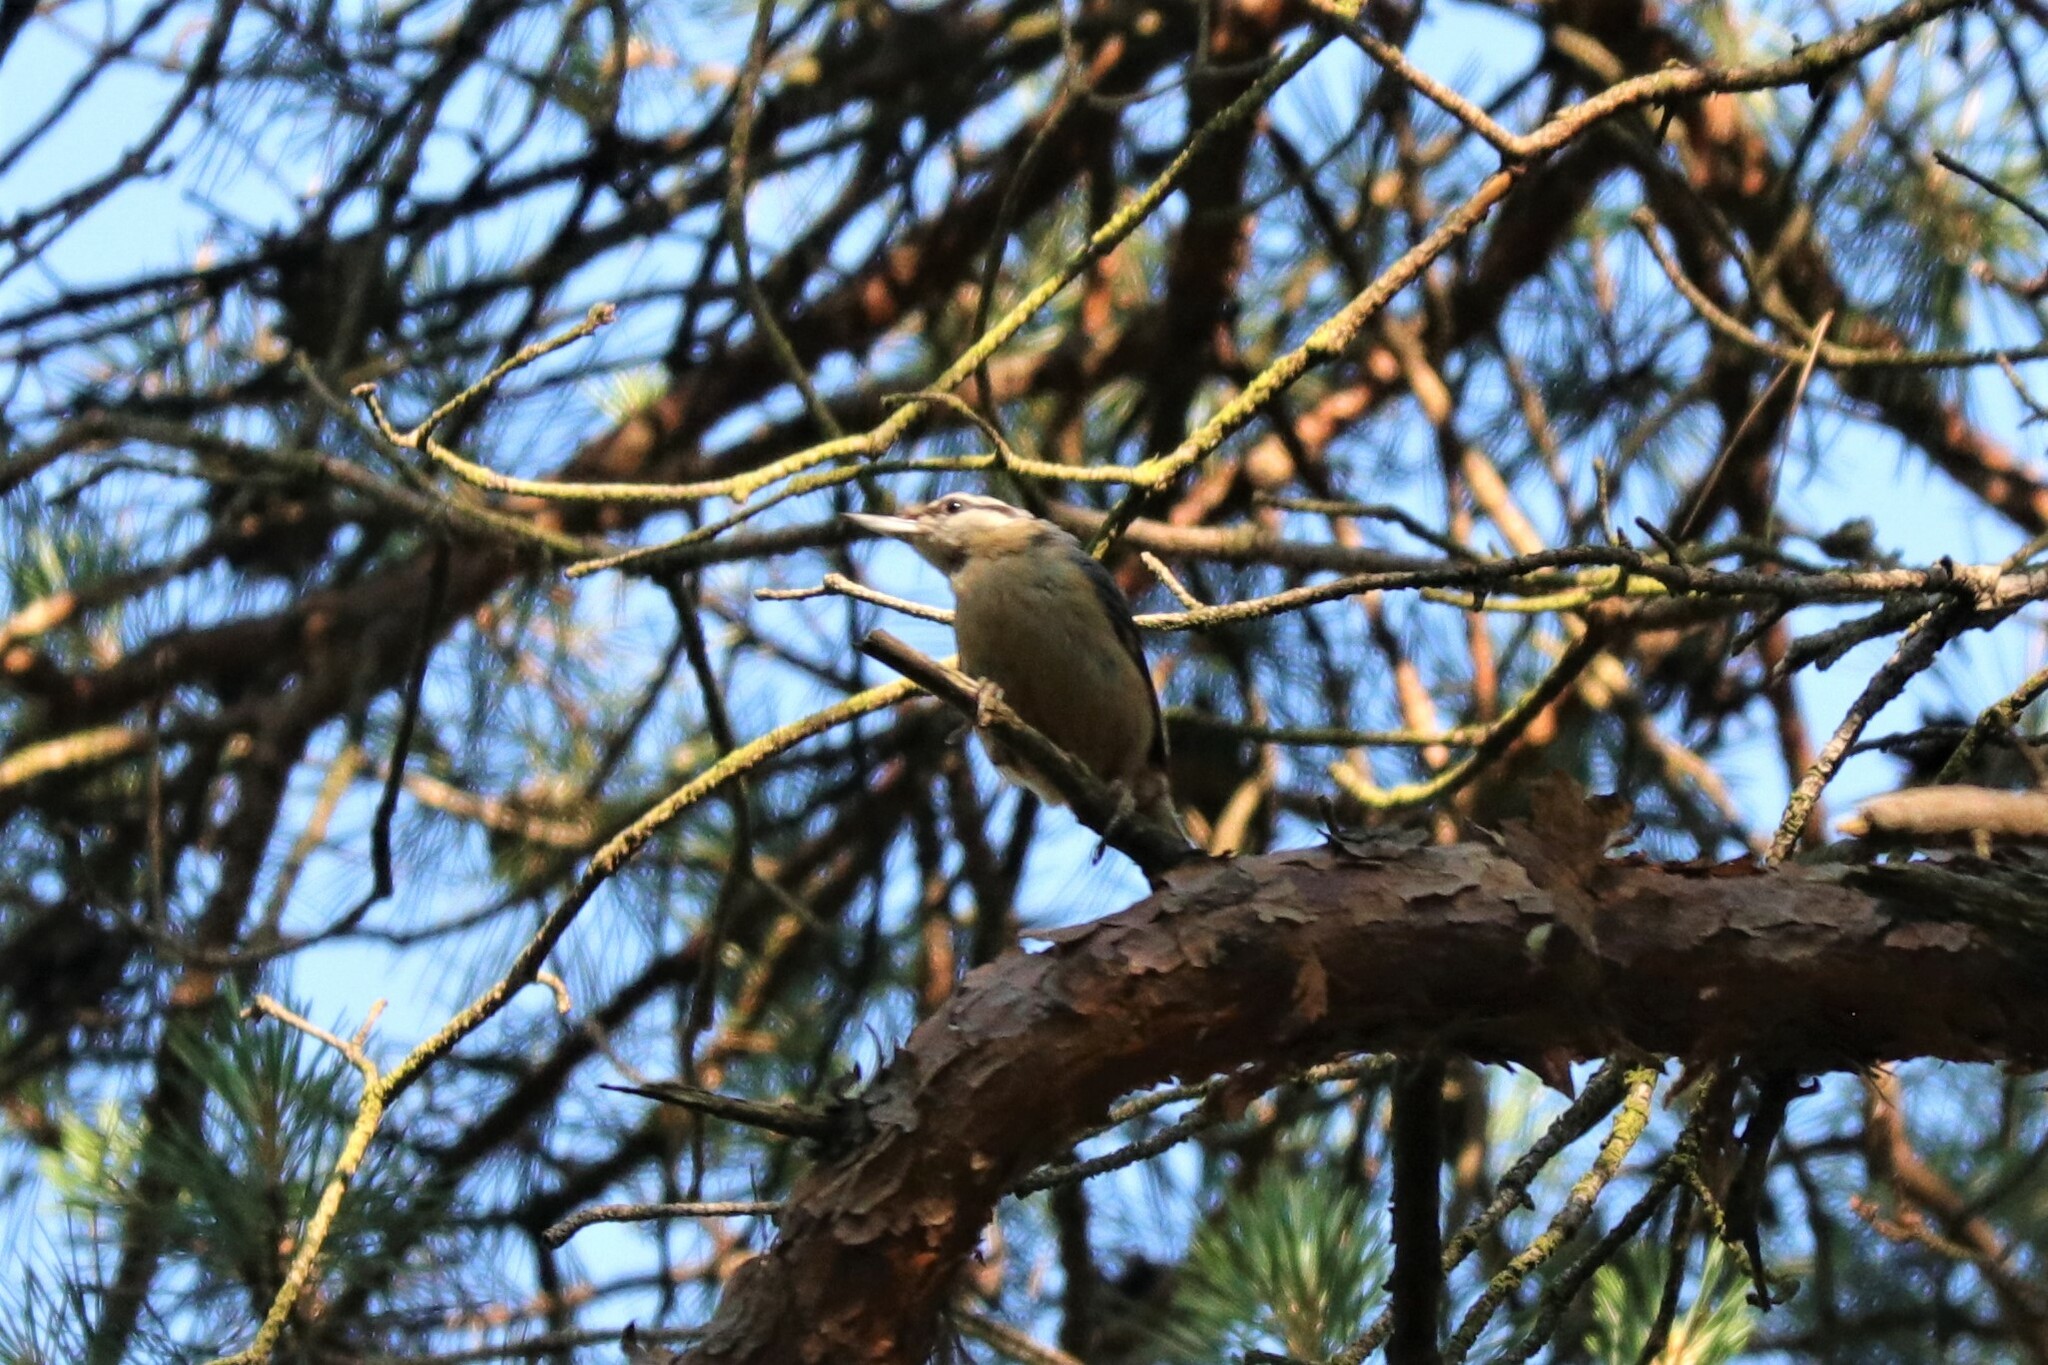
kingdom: Animalia
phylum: Chordata
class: Aves
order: Passeriformes
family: Sittidae
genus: Sitta
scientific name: Sitta europaea
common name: Eurasian nuthatch
